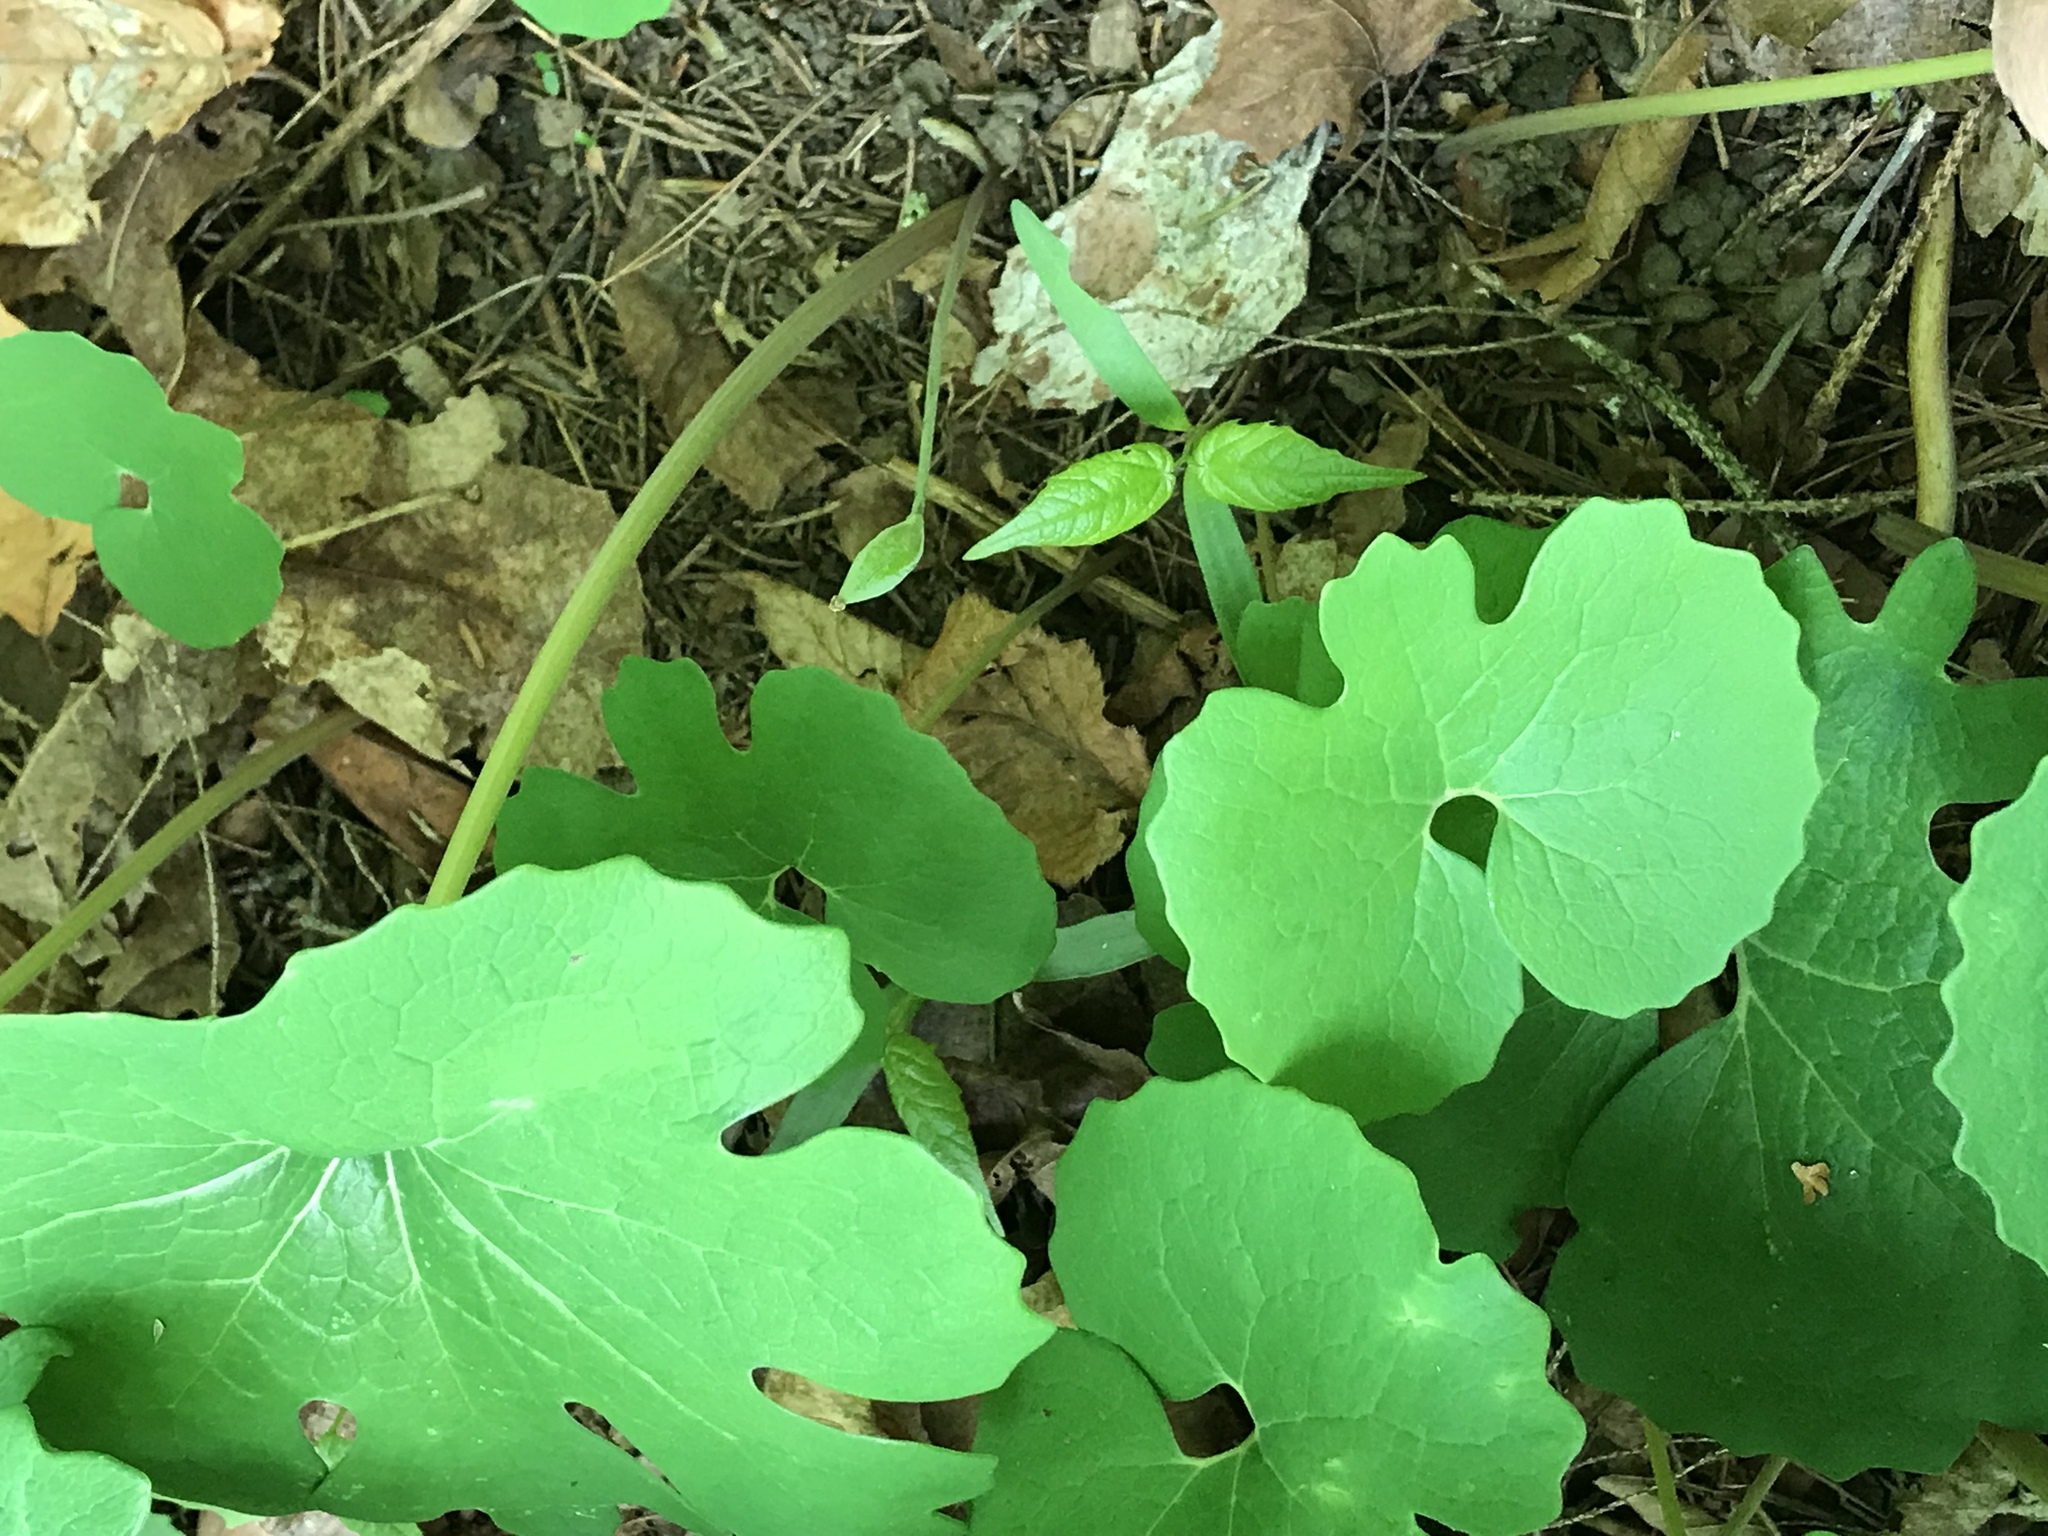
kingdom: Plantae
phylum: Tracheophyta
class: Magnoliopsida
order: Ranunculales
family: Papaveraceae
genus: Sanguinaria
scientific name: Sanguinaria canadensis
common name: Bloodroot
